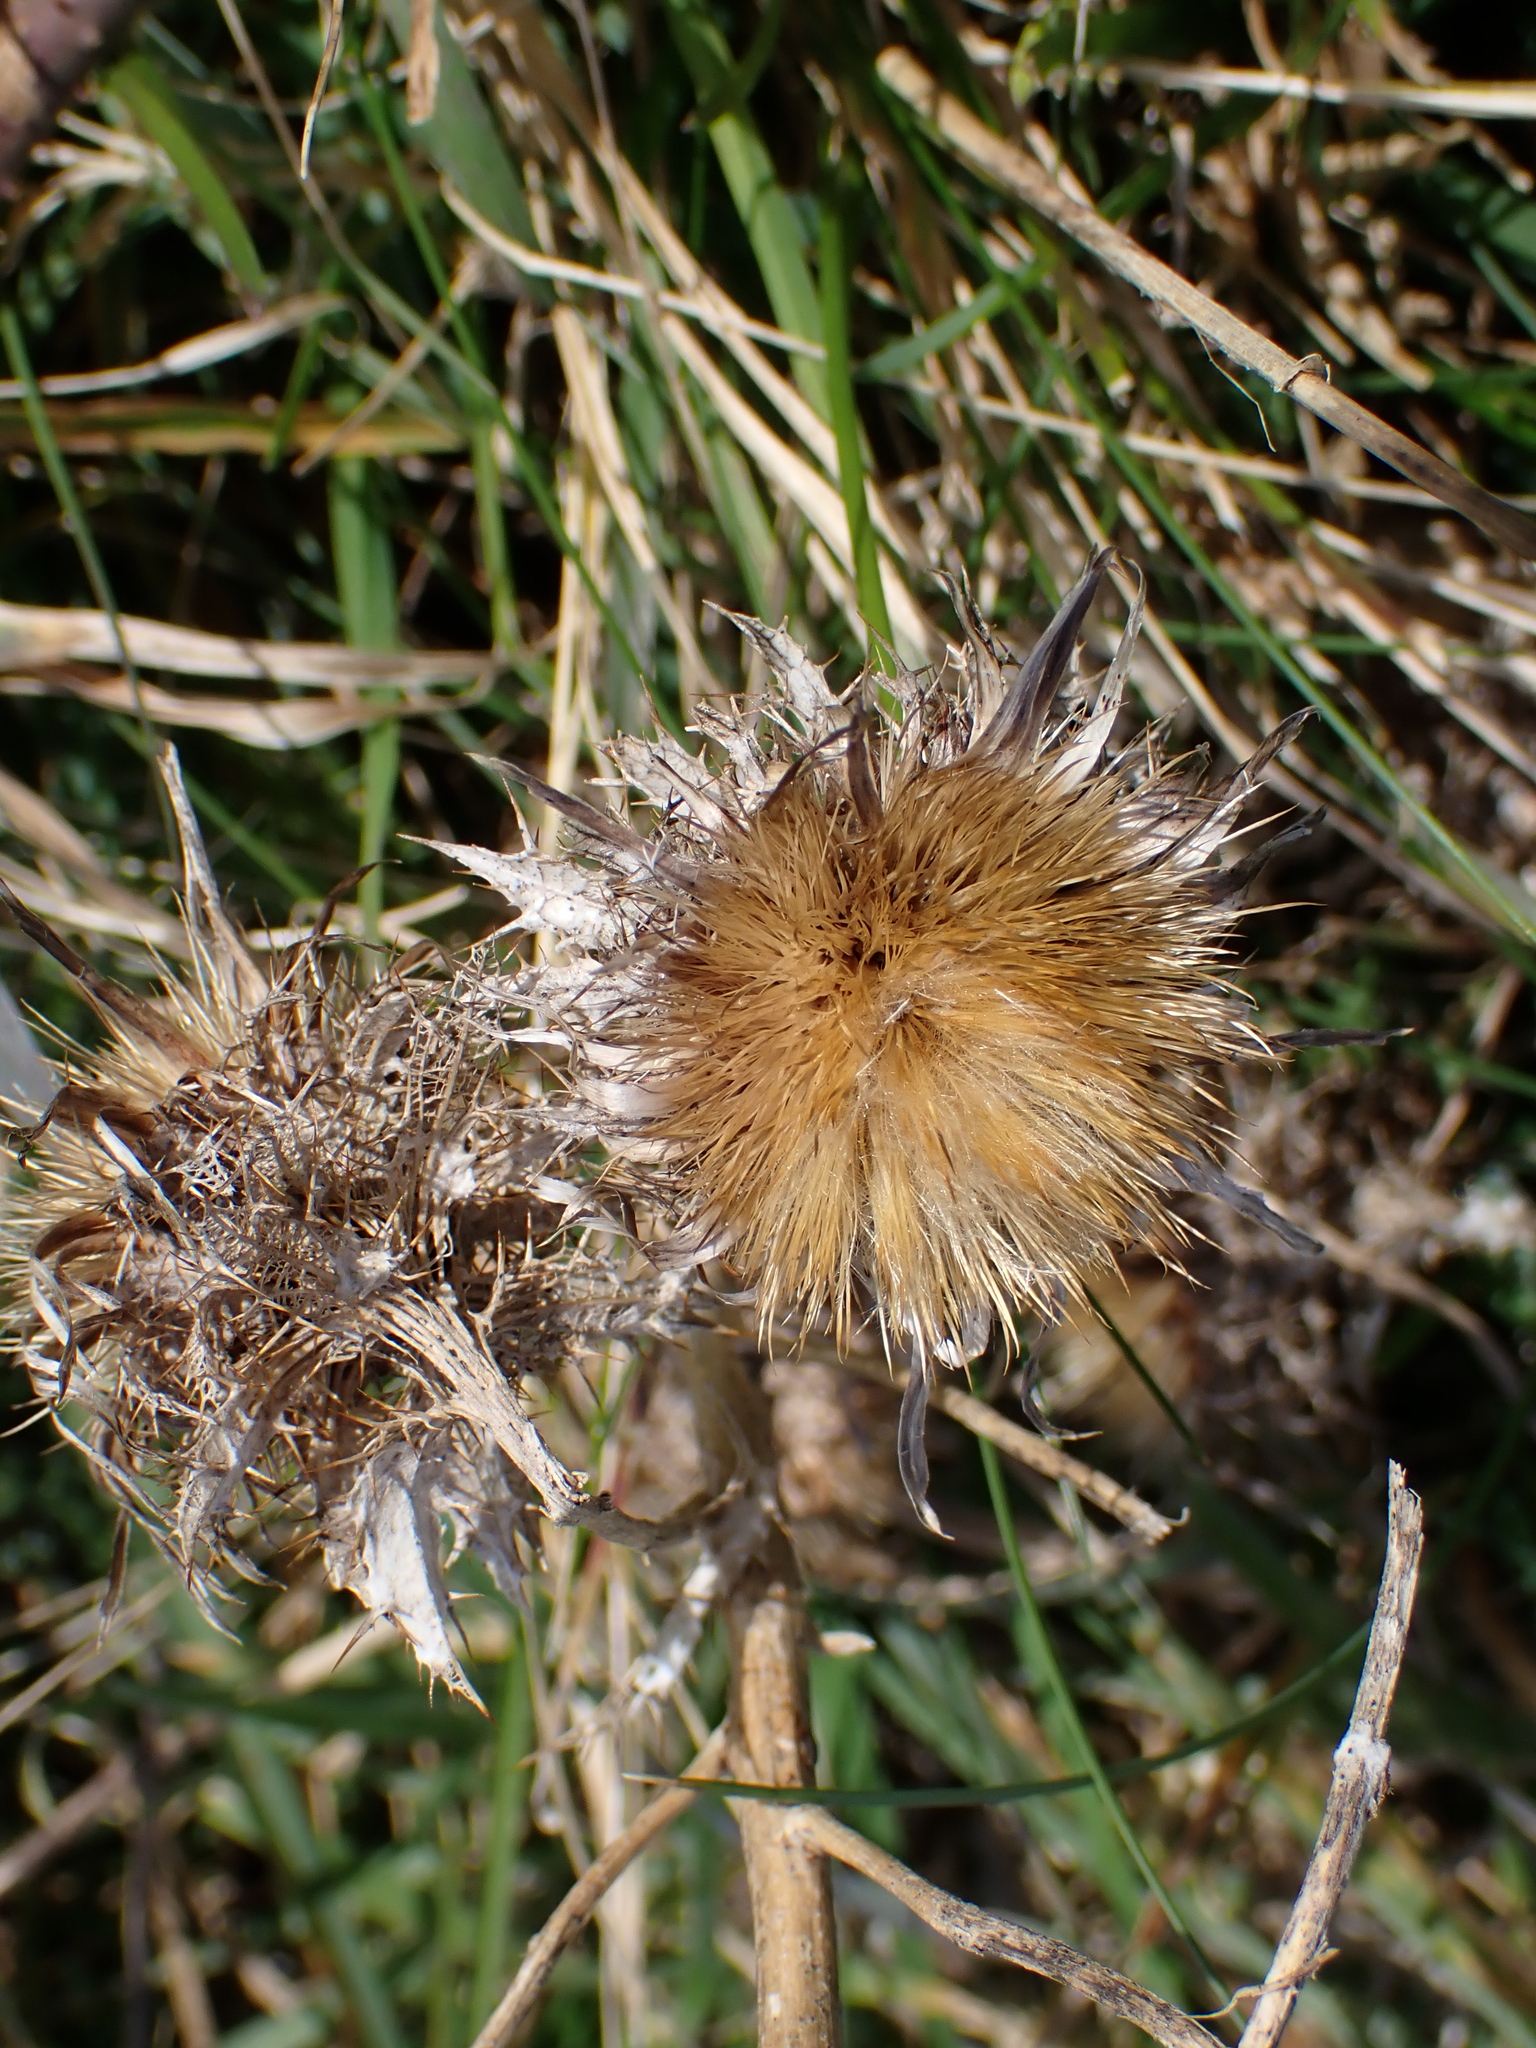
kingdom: Plantae
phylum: Tracheophyta
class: Magnoliopsida
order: Asterales
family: Asteraceae
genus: Carlina
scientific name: Carlina vulgaris
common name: Carline thistle
